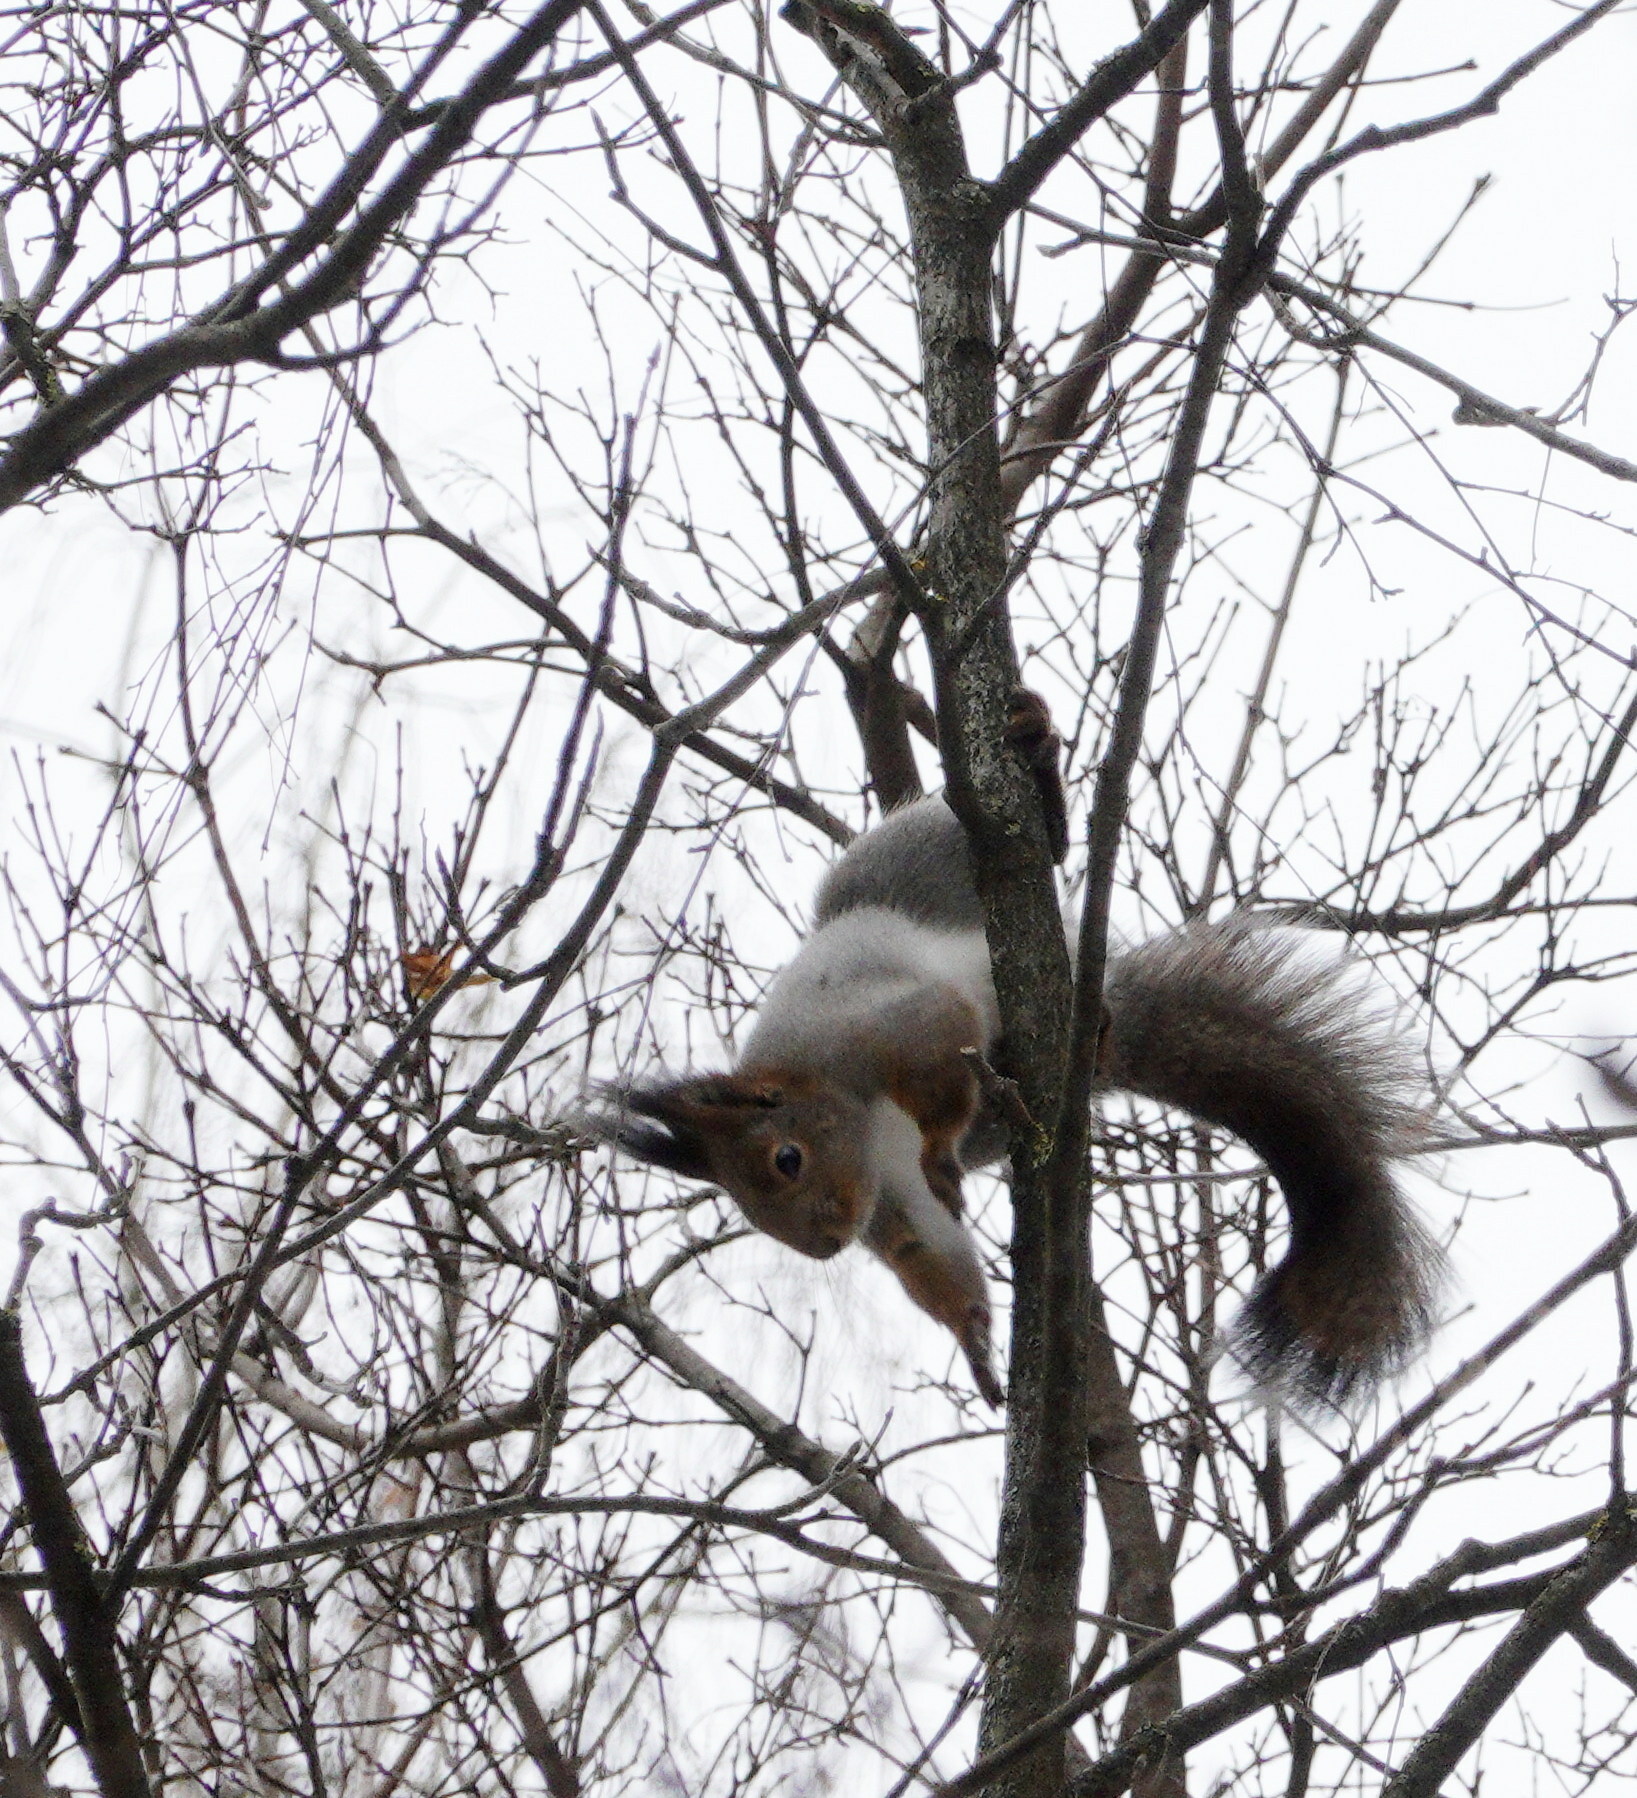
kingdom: Animalia
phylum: Chordata
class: Mammalia
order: Rodentia
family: Sciuridae
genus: Sciurus
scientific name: Sciurus vulgaris
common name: Eurasian red squirrel
